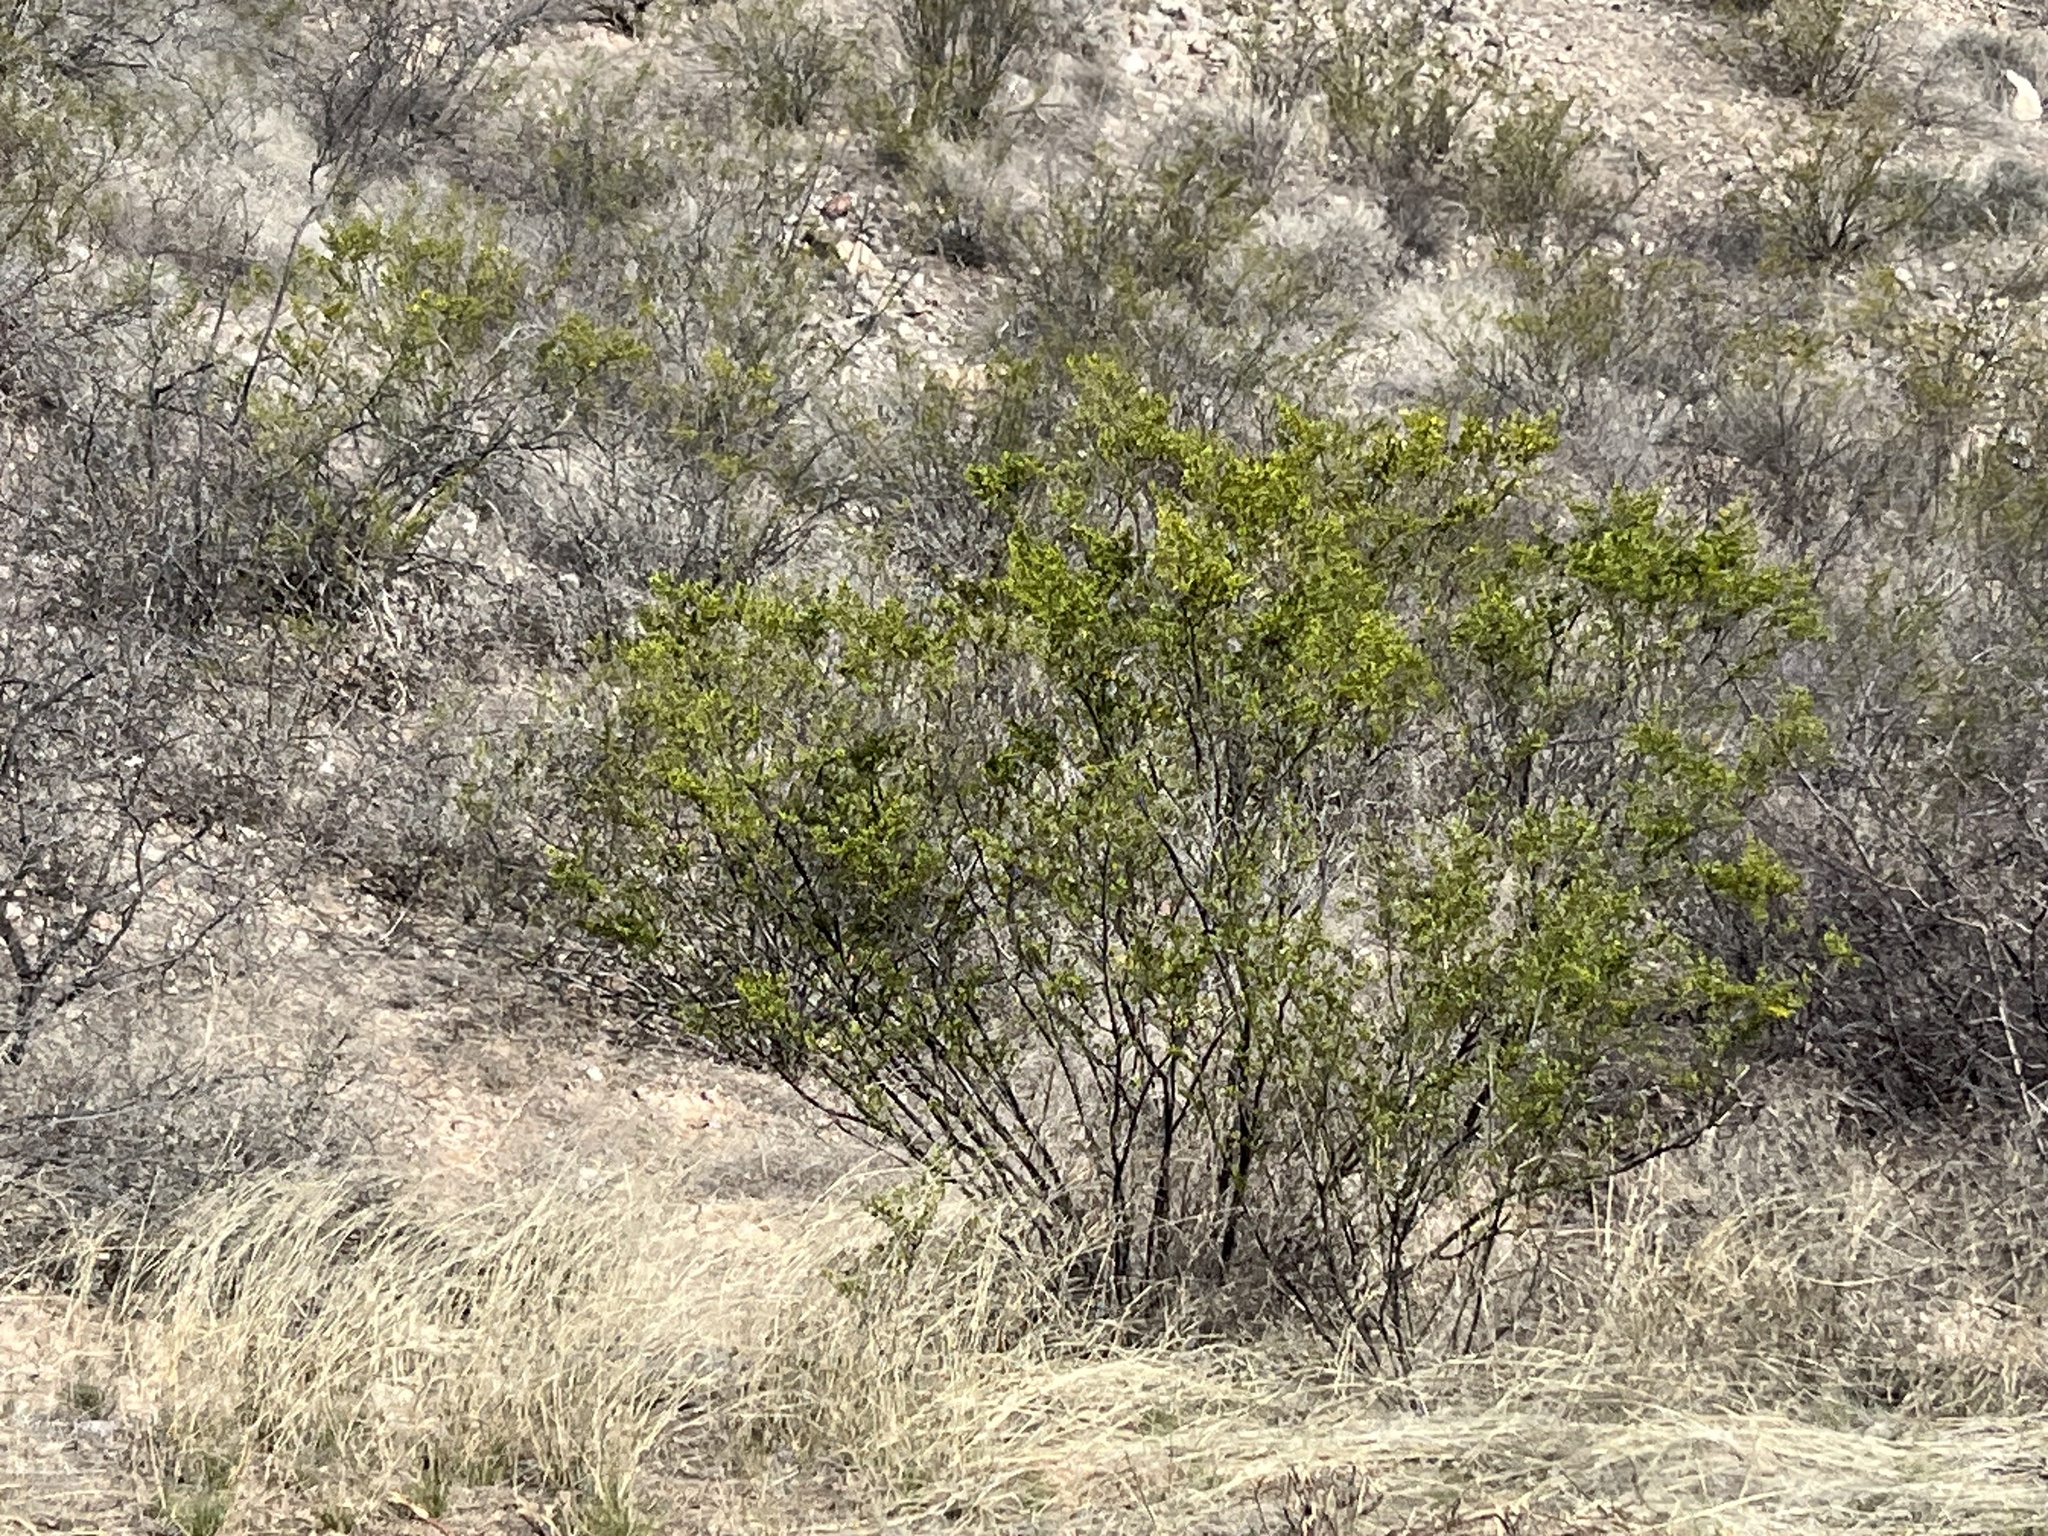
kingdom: Plantae
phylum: Tracheophyta
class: Magnoliopsida
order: Zygophyllales
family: Zygophyllaceae
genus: Larrea
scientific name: Larrea tridentata
